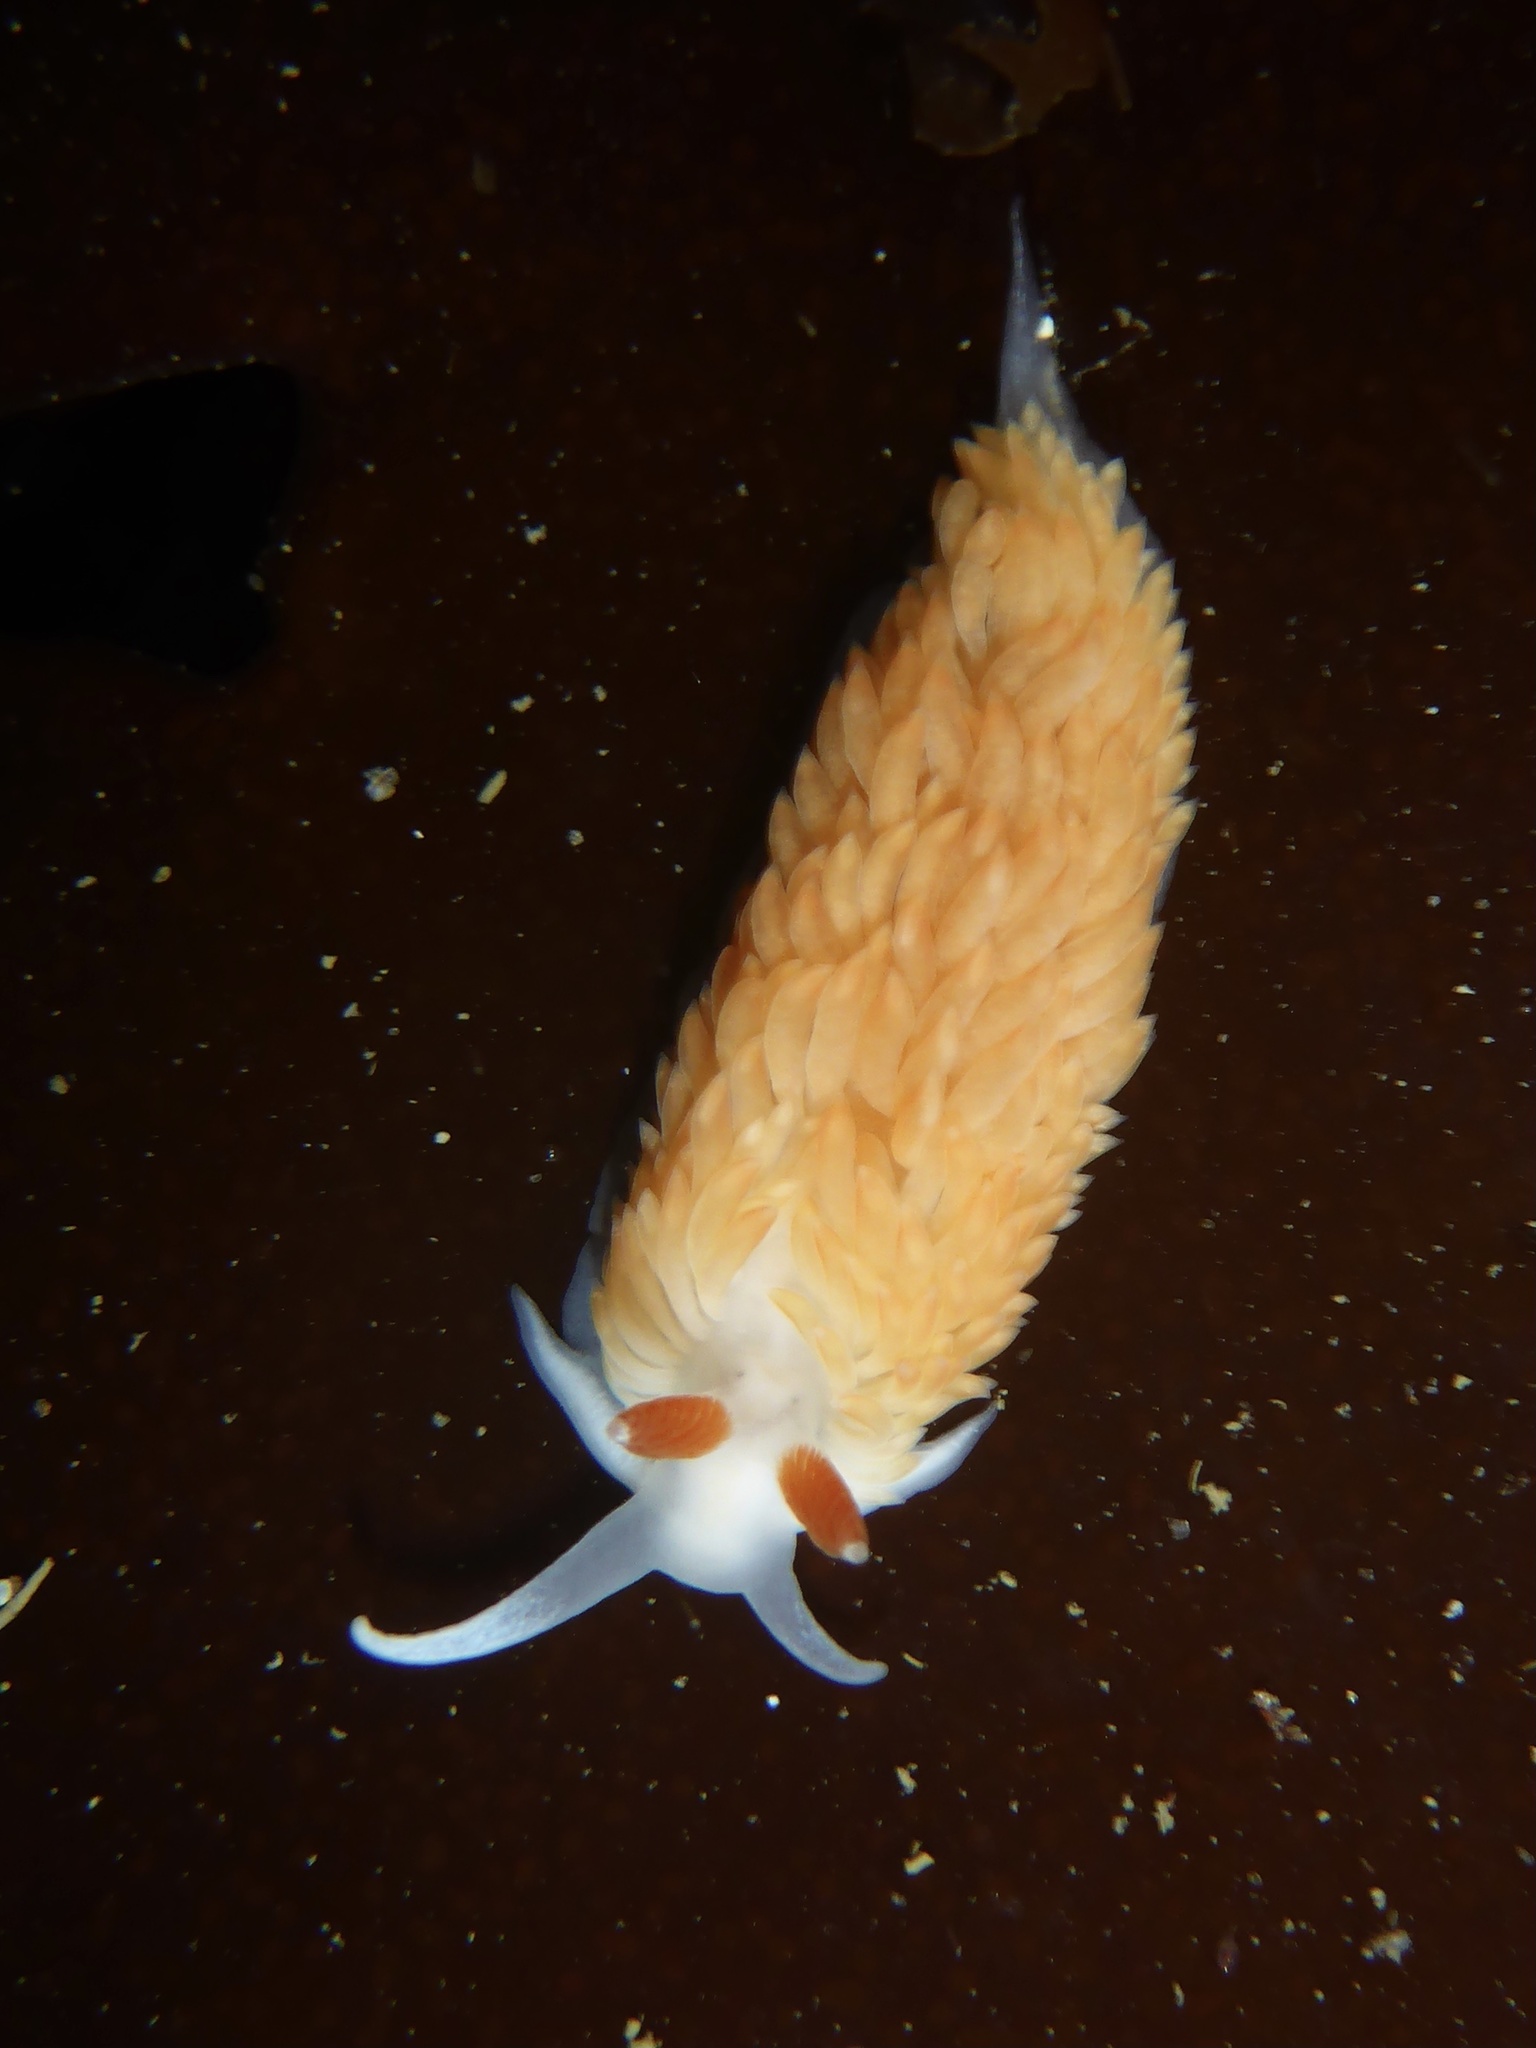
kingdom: Animalia
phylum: Mollusca
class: Gastropoda
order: Nudibranchia
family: Aeolidiidae
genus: Anteaeolidiella
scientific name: Anteaeolidiella oliviae
